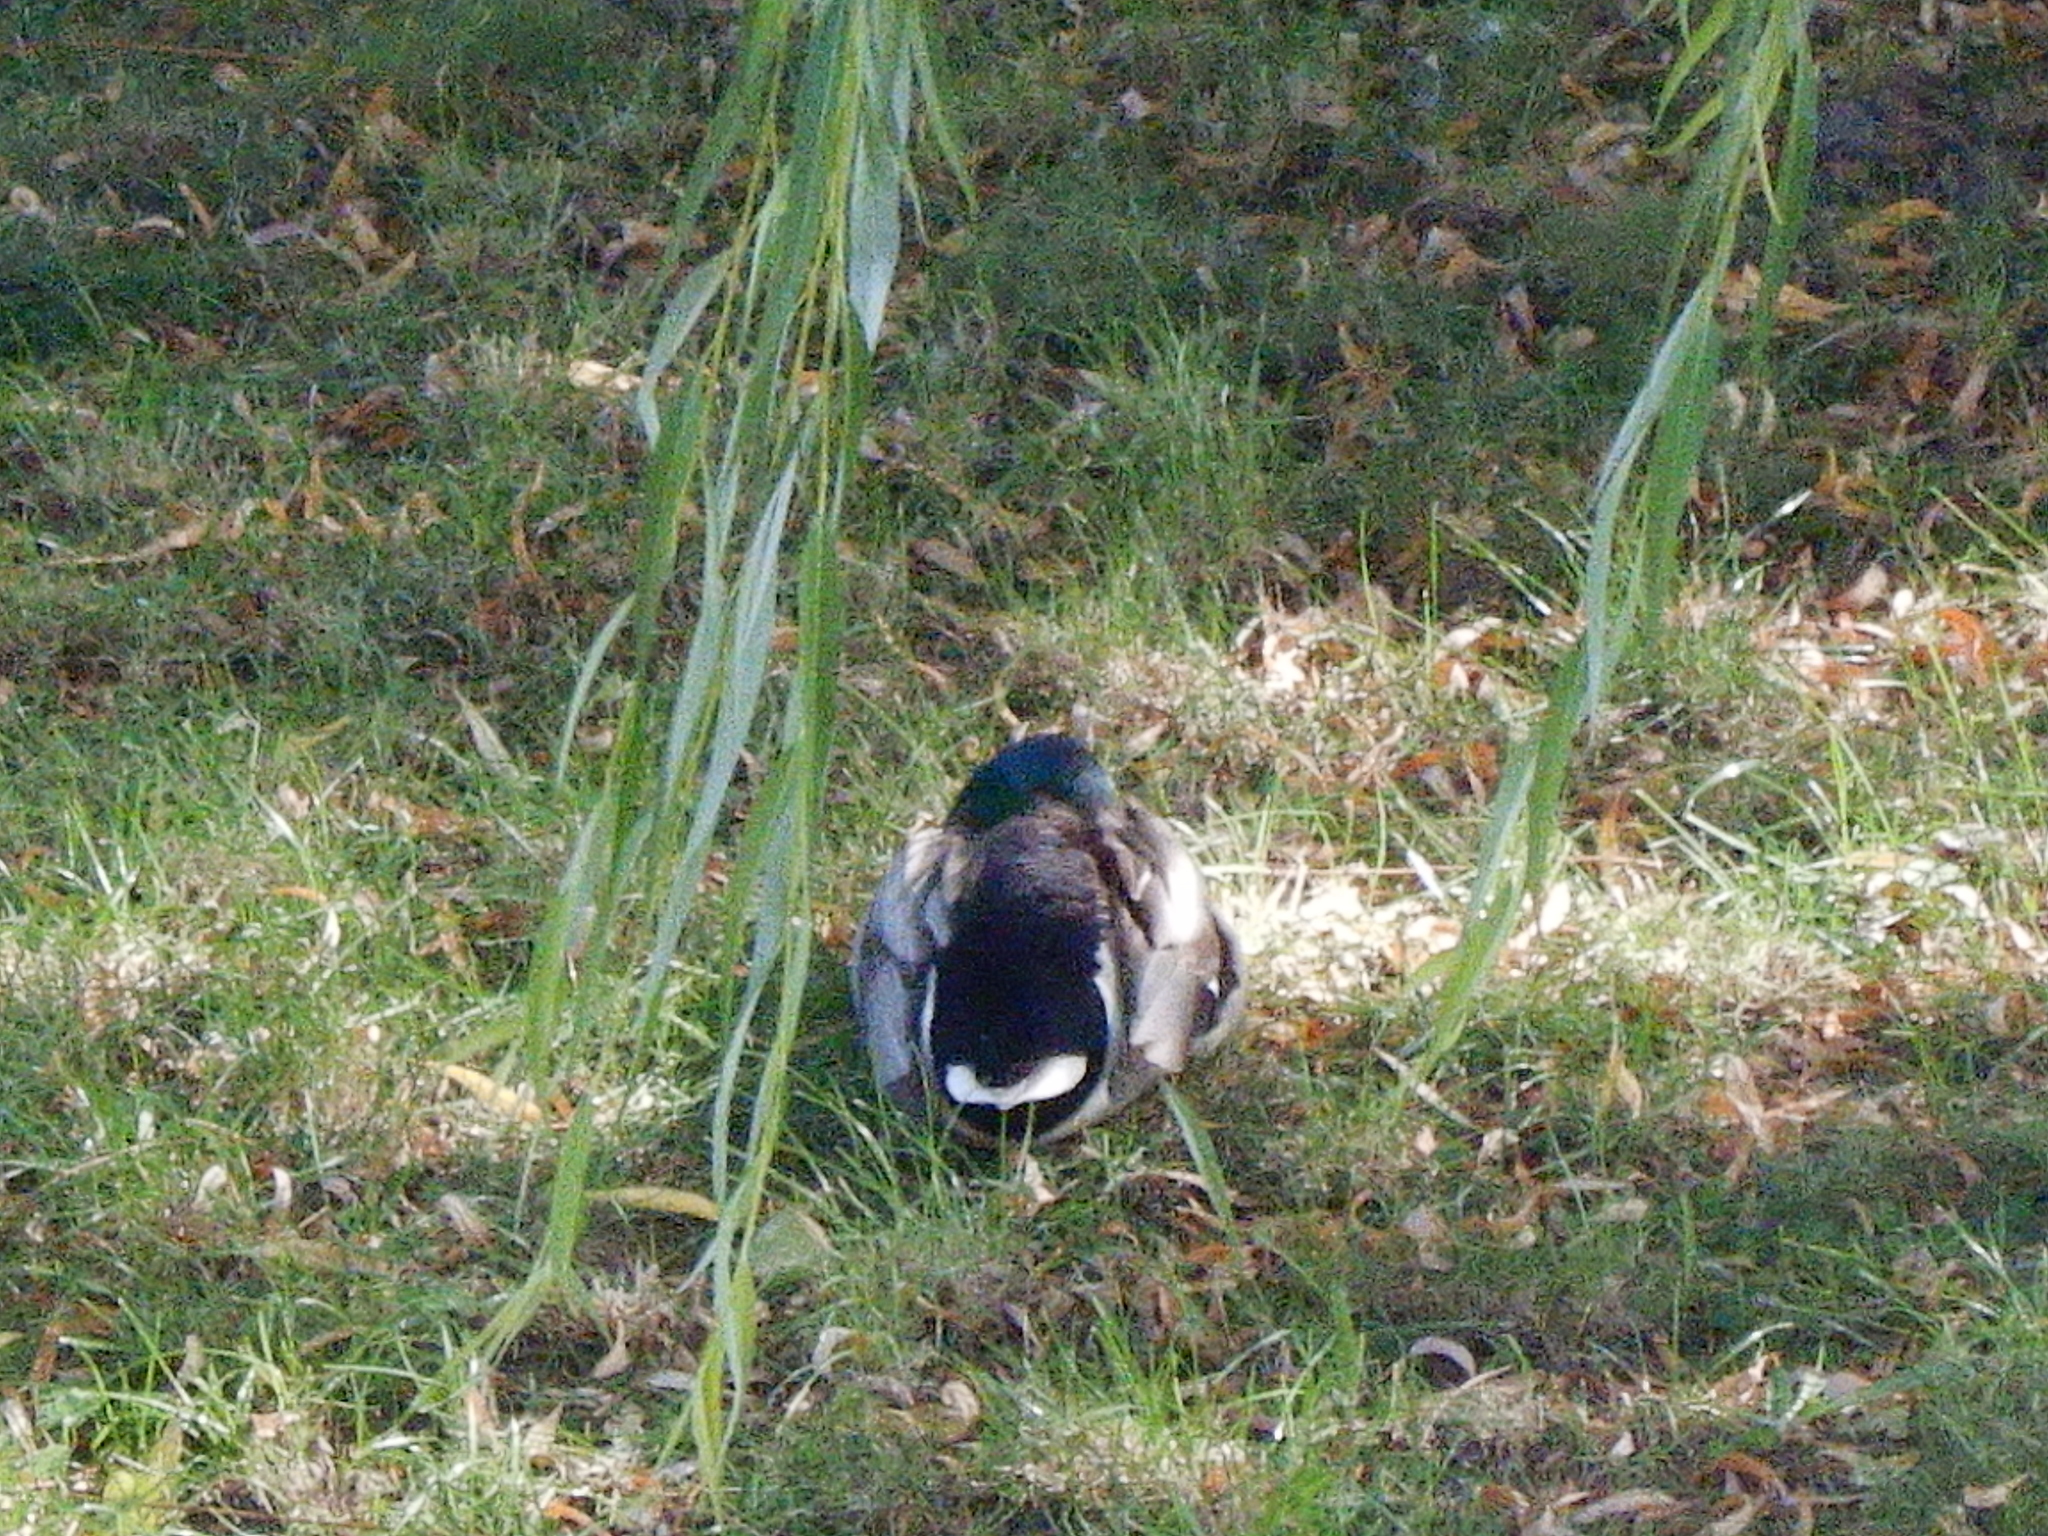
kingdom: Animalia
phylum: Chordata
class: Aves
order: Anseriformes
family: Anatidae
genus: Anas
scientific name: Anas platyrhynchos
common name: Mallard
